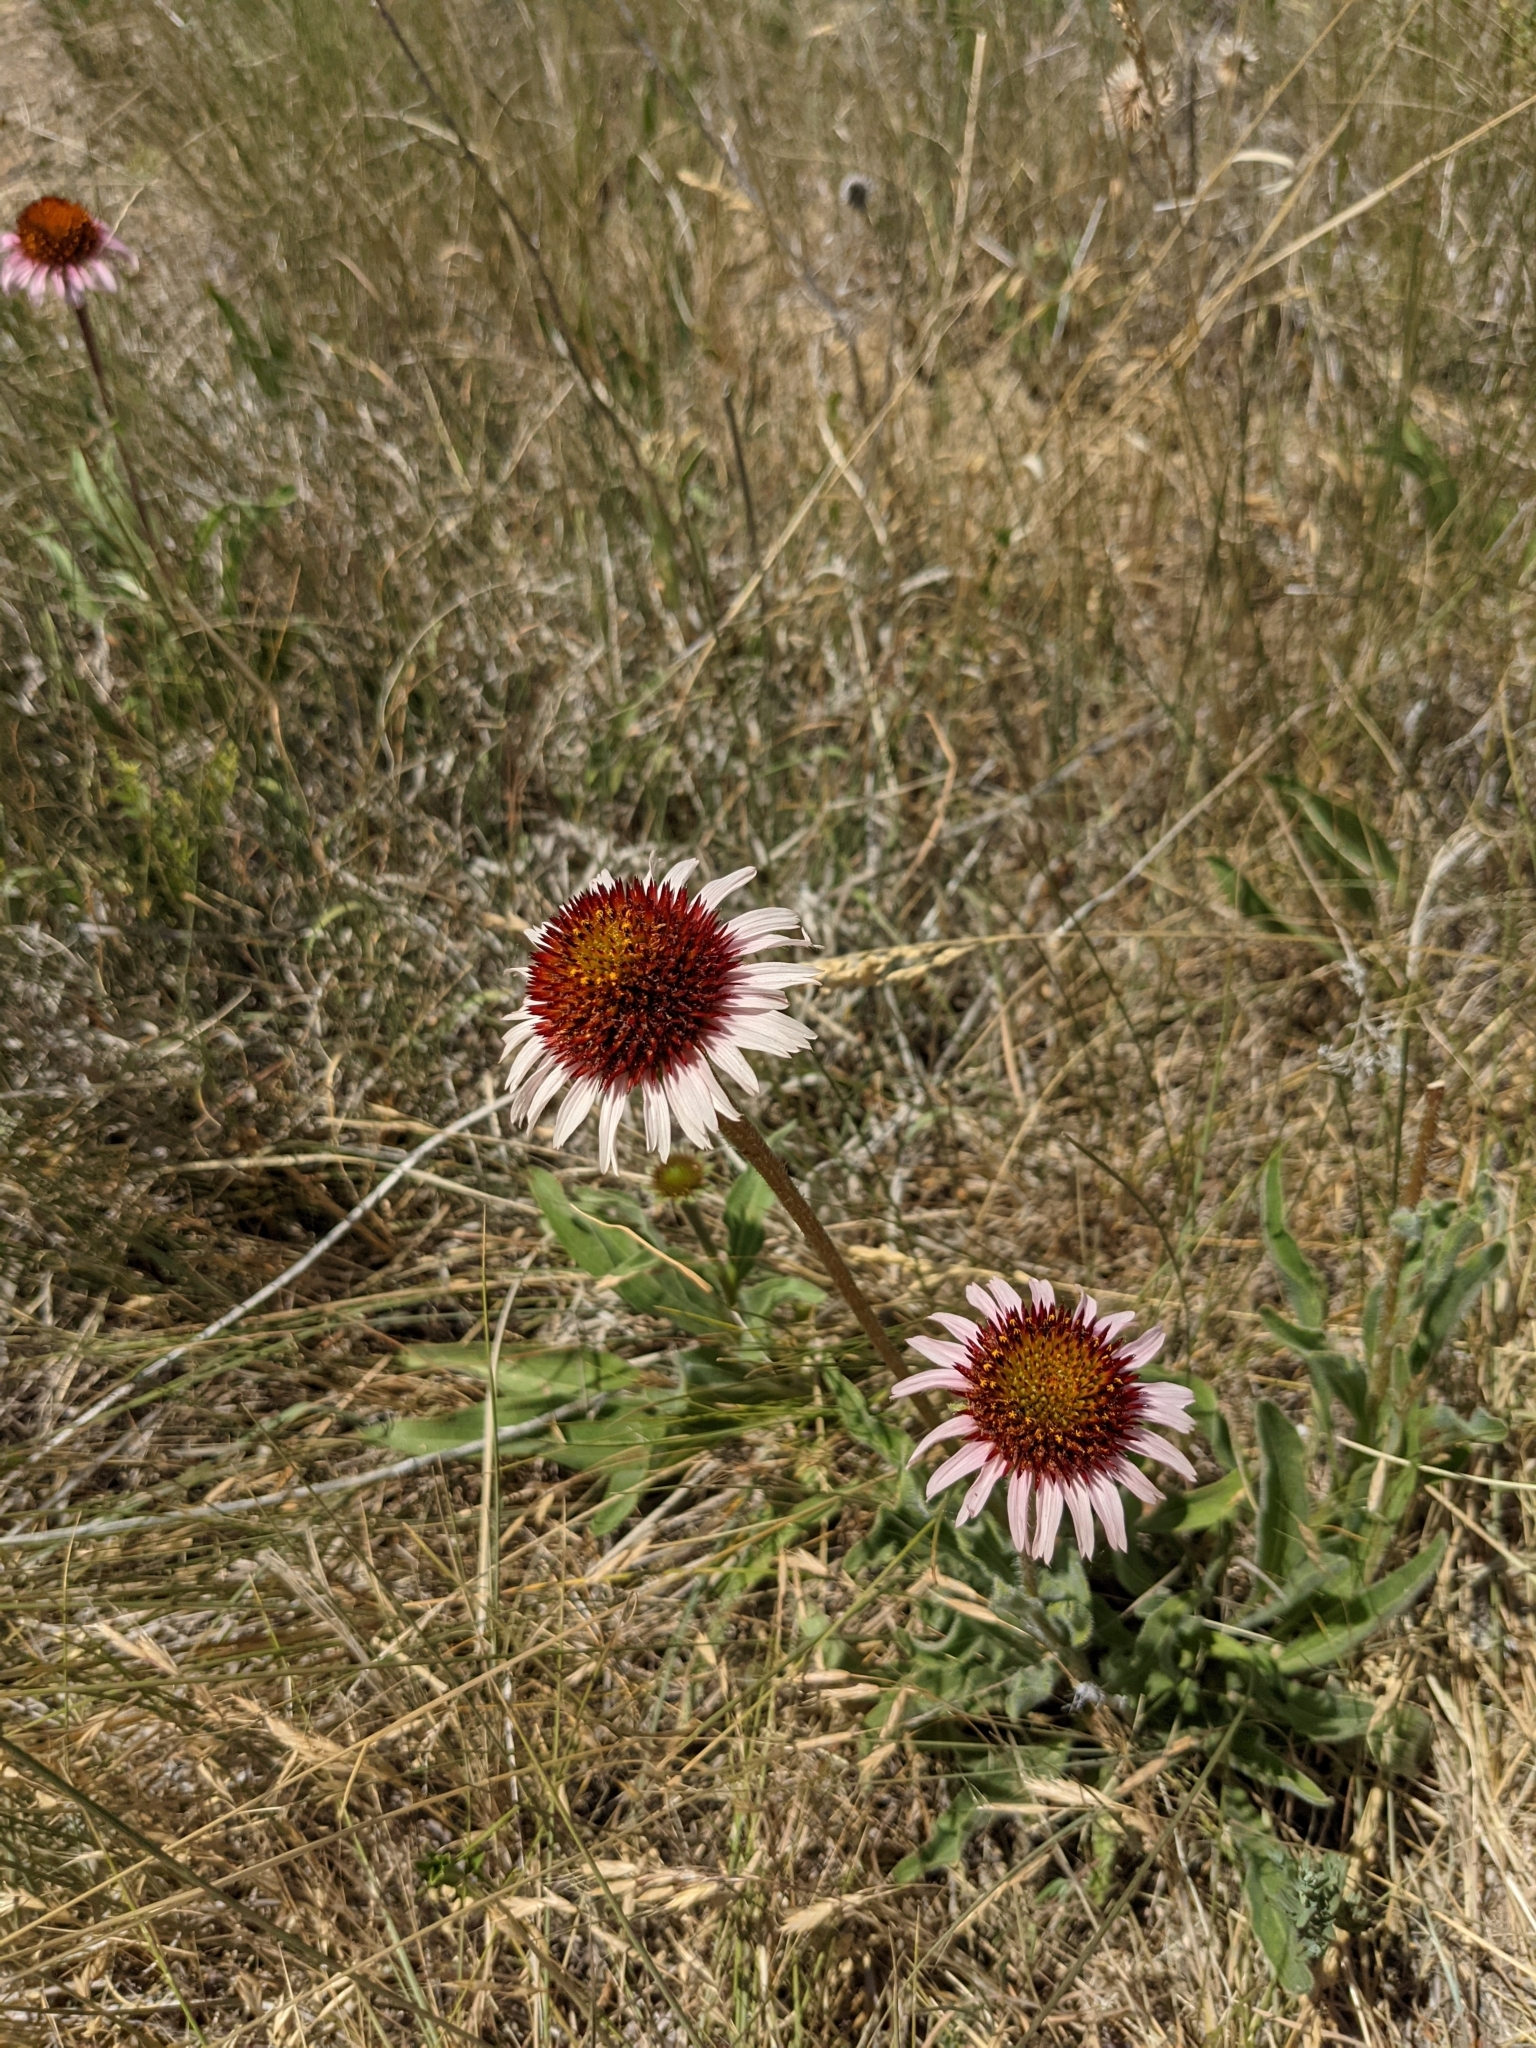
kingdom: Plantae
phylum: Tracheophyta
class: Magnoliopsida
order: Asterales
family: Asteraceae
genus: Echinacea
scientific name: Echinacea angustifolia
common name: Black-sampson echinacea
